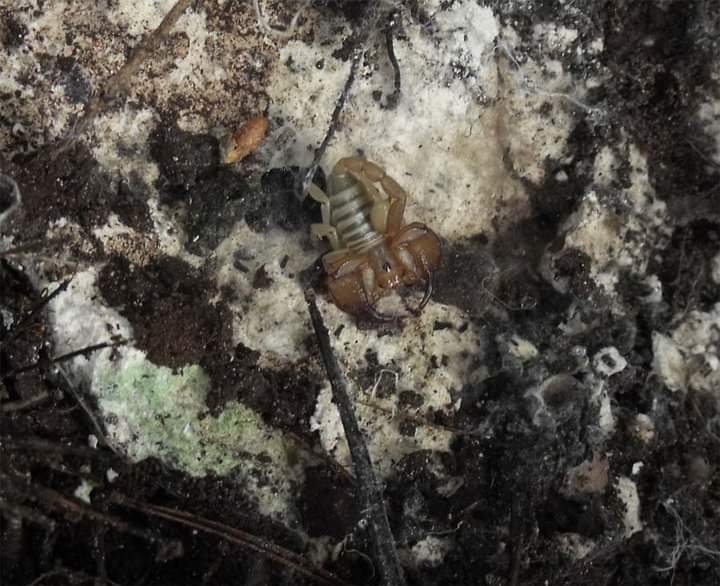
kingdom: Animalia
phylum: Arthropoda
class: Arachnida
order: Scorpiones
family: Euscorpiidae
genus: Euscorpius
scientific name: Euscorpius garganicus
